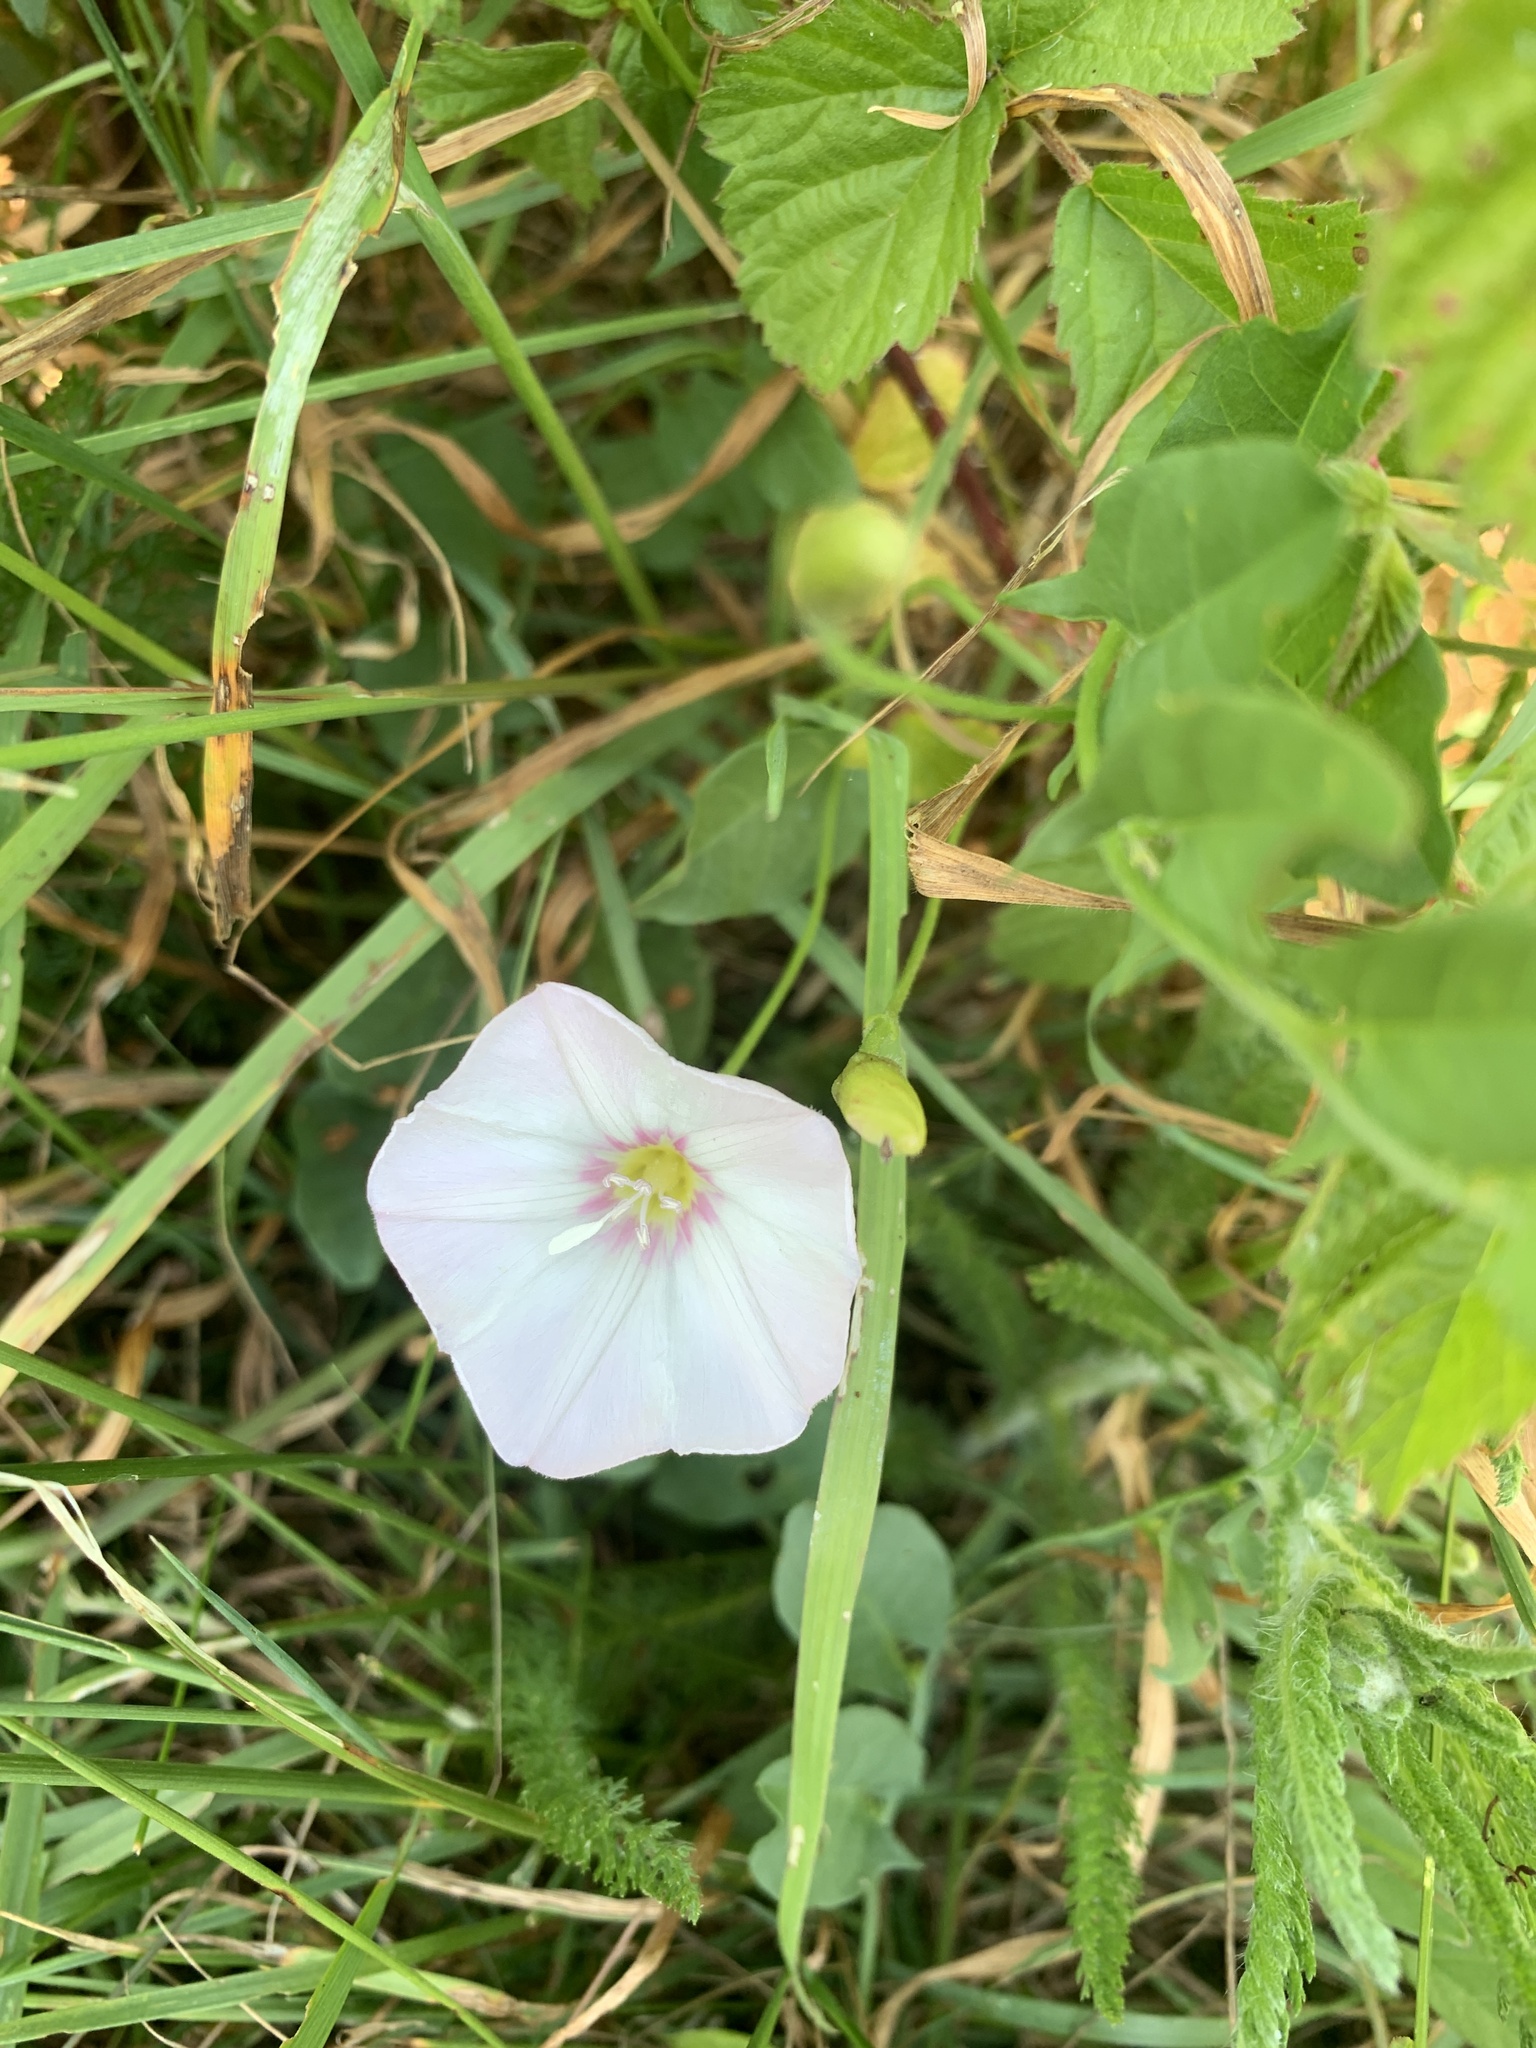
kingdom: Plantae
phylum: Tracheophyta
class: Magnoliopsida
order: Solanales
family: Convolvulaceae
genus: Convolvulus
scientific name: Convolvulus arvensis
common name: Field bindweed
